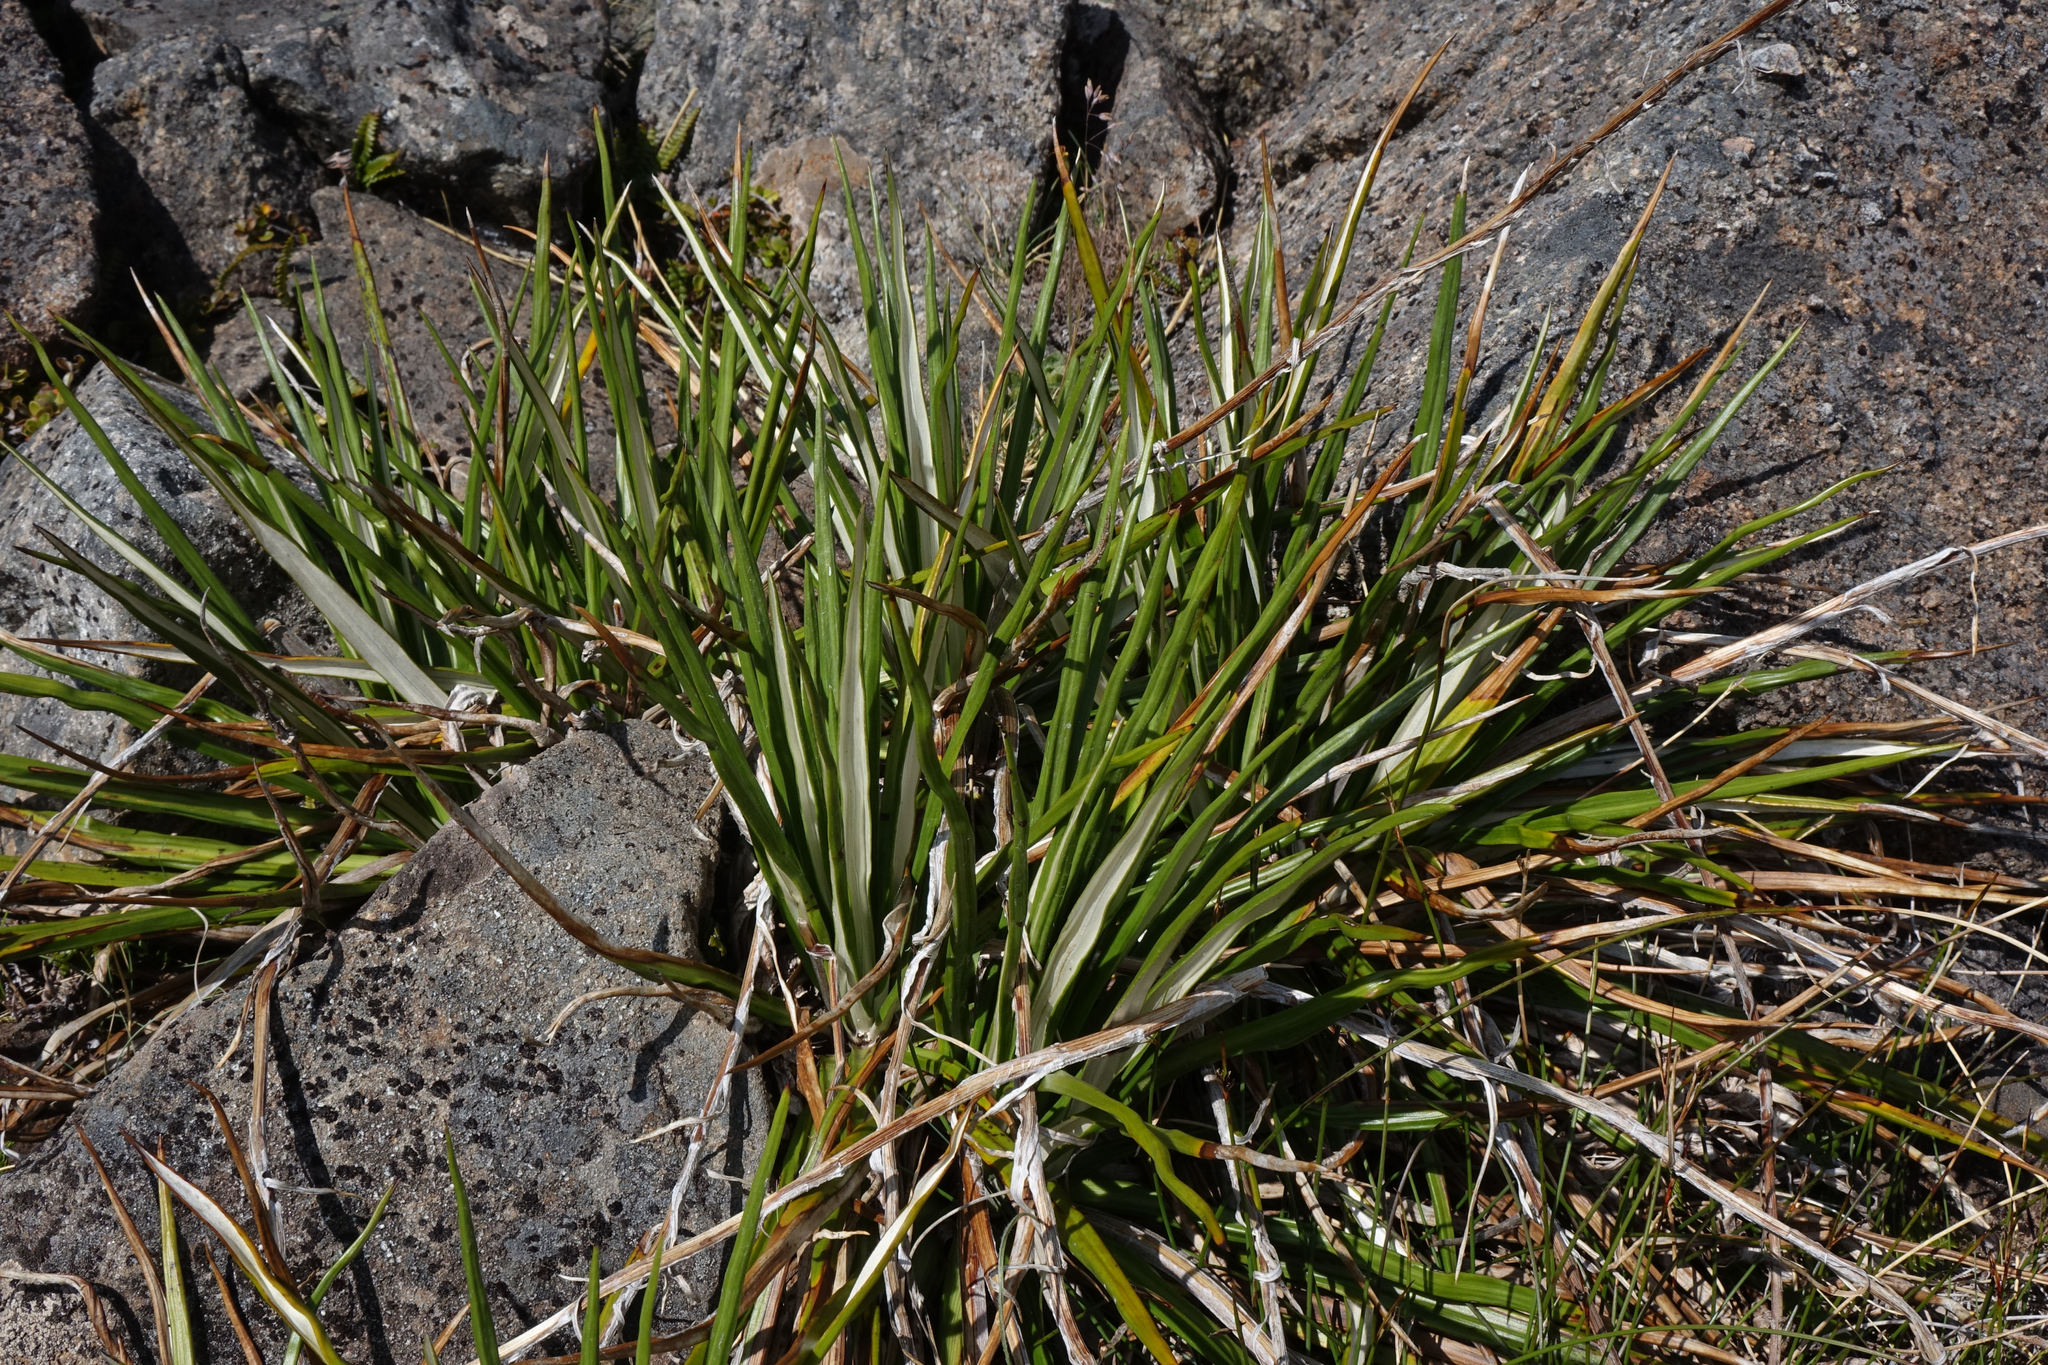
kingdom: Plantae
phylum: Tracheophyta
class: Magnoliopsida
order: Asterales
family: Asteraceae
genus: Celmisia
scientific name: Celmisia petriei
